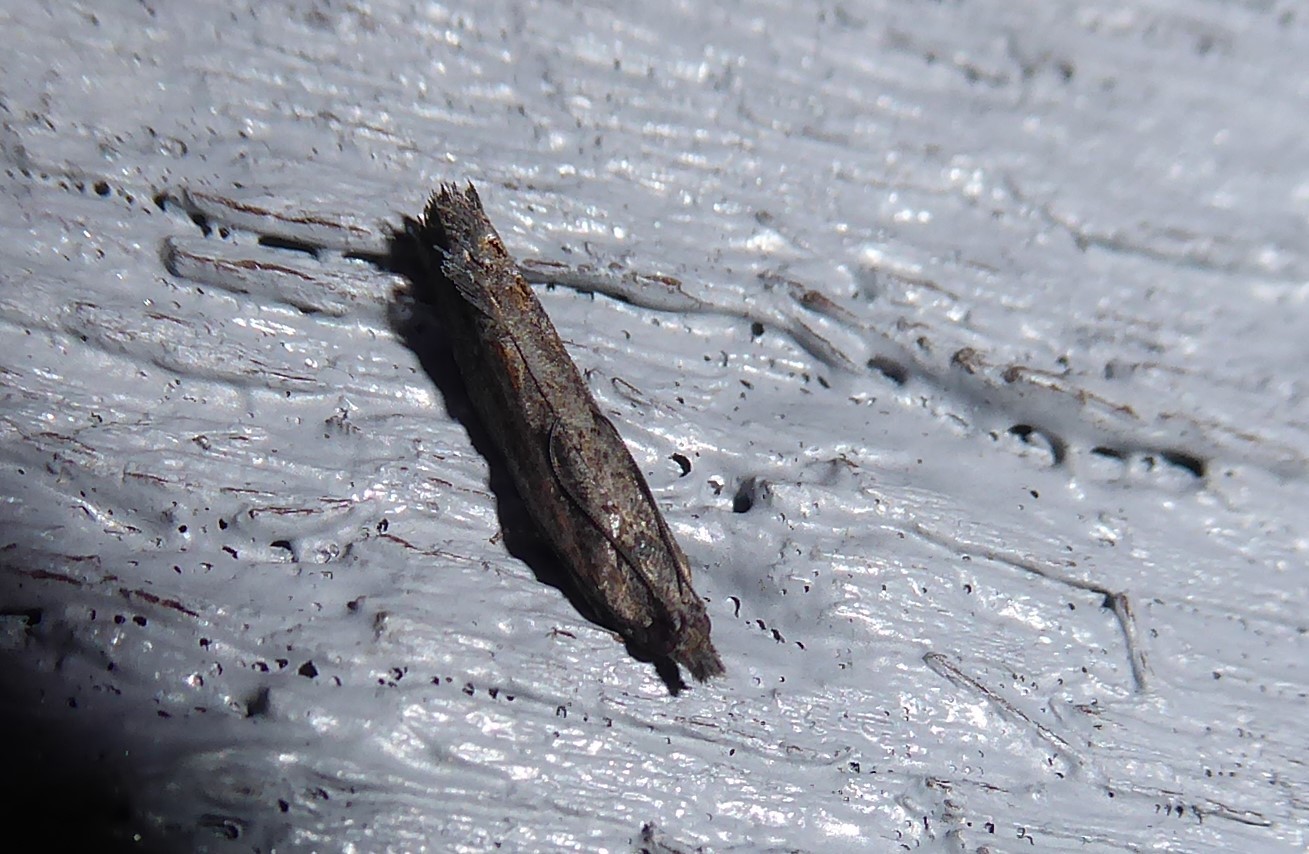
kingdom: Animalia
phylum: Arthropoda
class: Insecta
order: Lepidoptera
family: Tortricidae
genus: Strepsicrates
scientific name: Strepsicrates infensa
